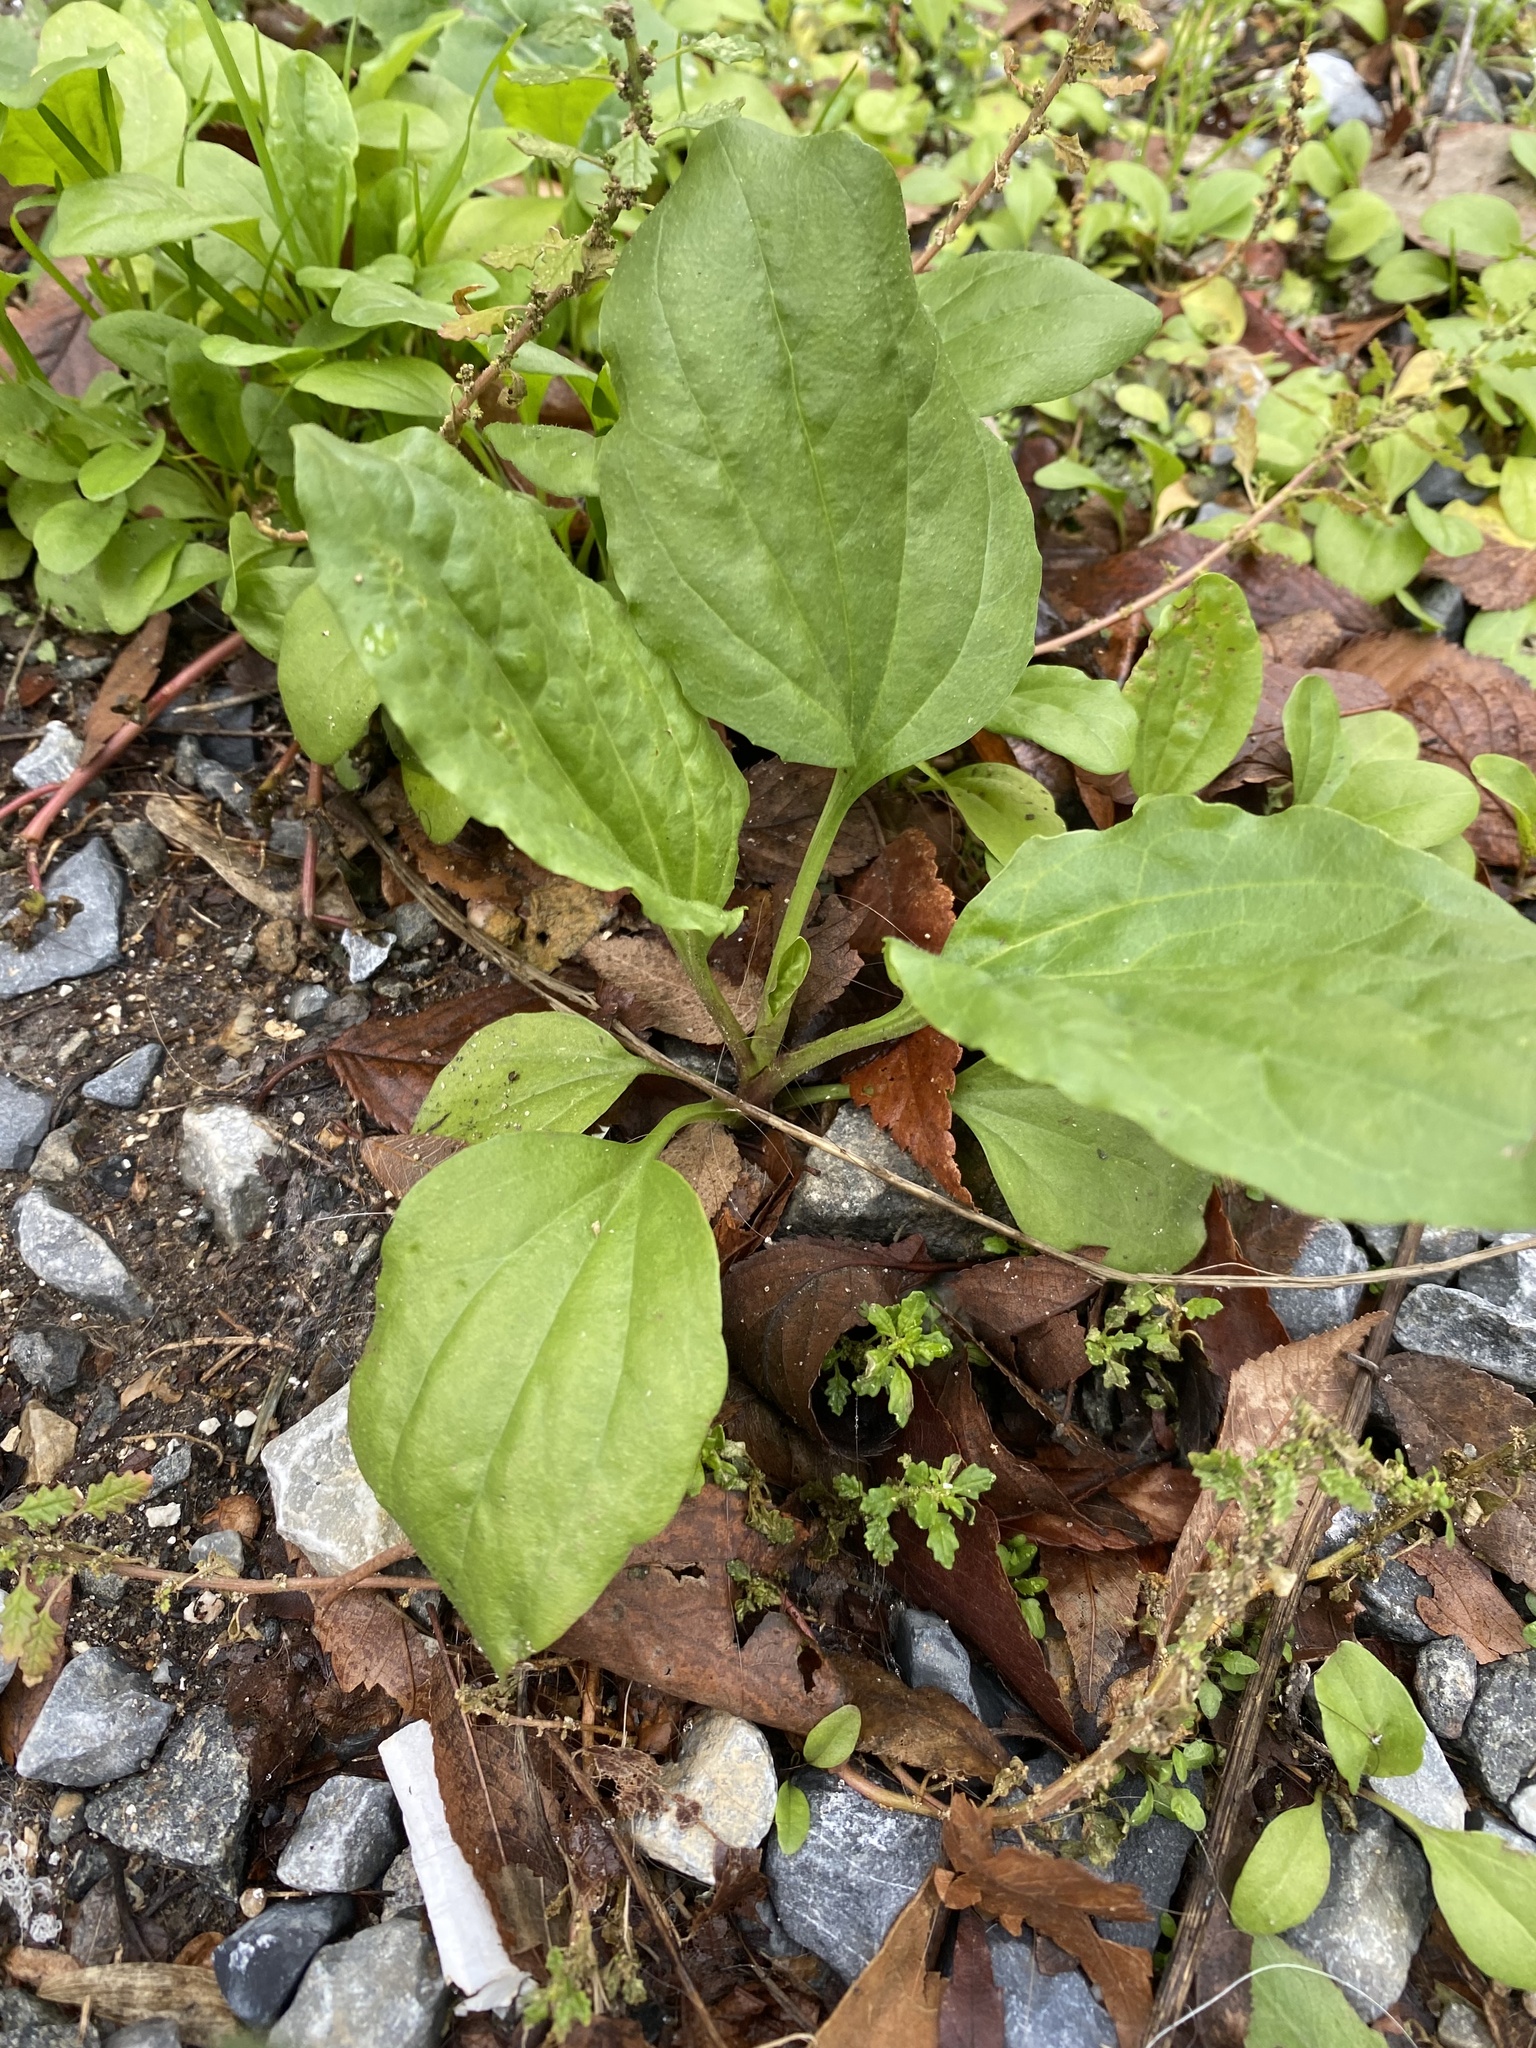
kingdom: Plantae
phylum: Tracheophyta
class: Magnoliopsida
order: Lamiales
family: Plantaginaceae
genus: Plantago
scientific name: Plantago rugelii
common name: American plantain
